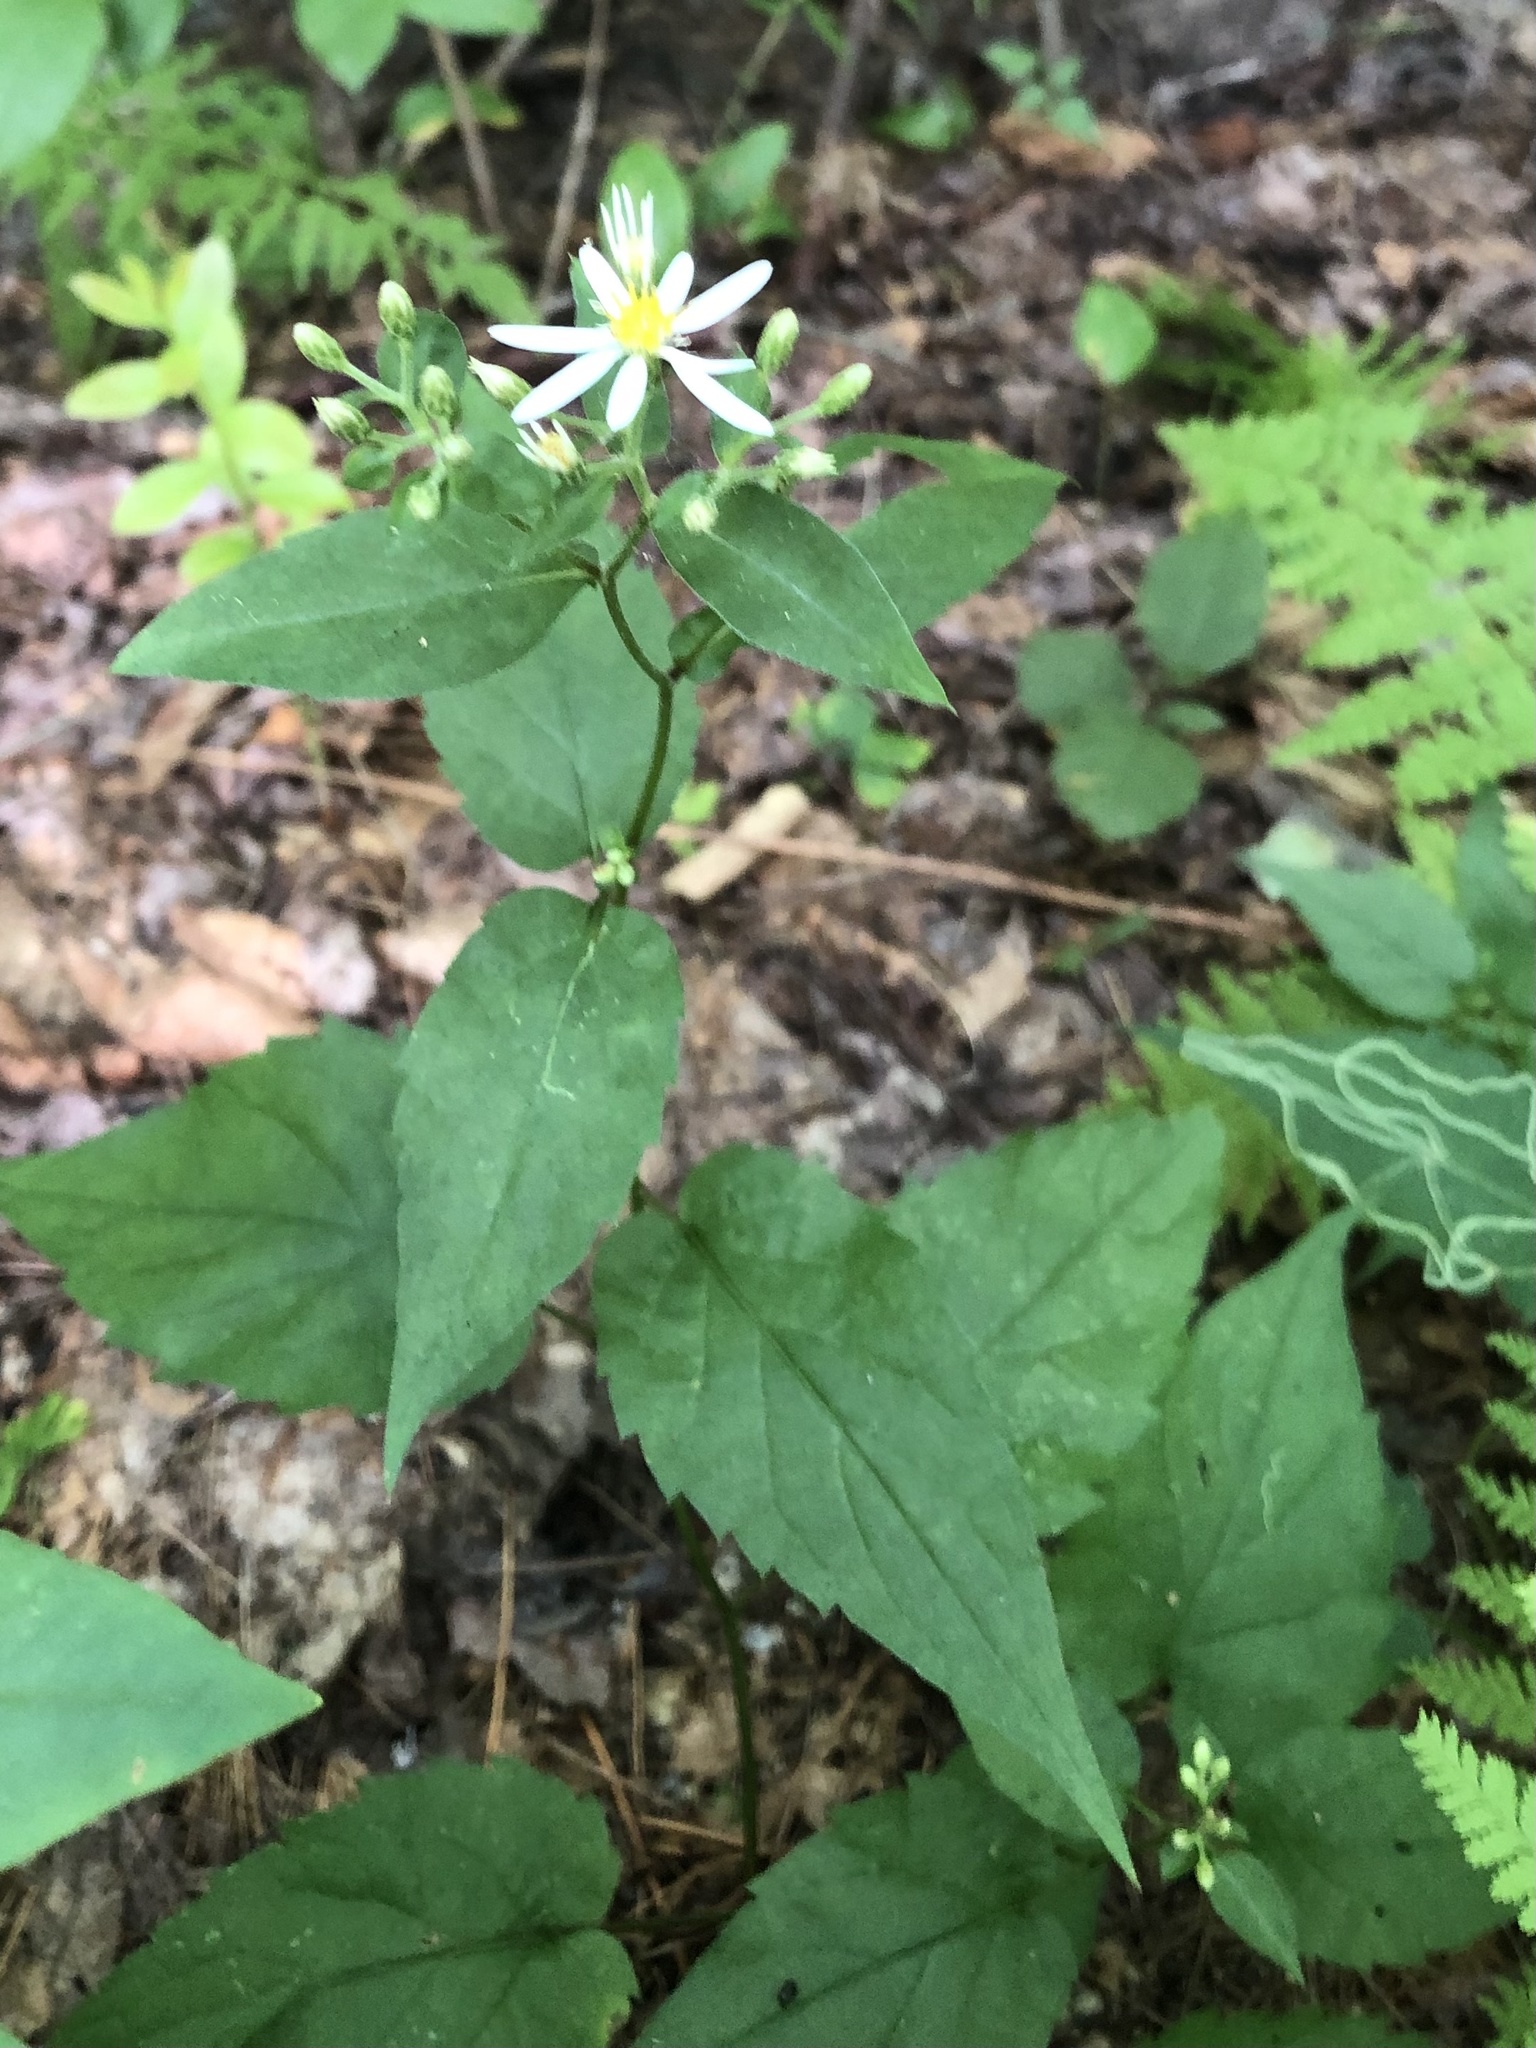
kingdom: Animalia
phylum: Arthropoda
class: Insecta
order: Diptera
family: Agromyzidae
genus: Ophiomyia
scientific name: Ophiomyia maura
